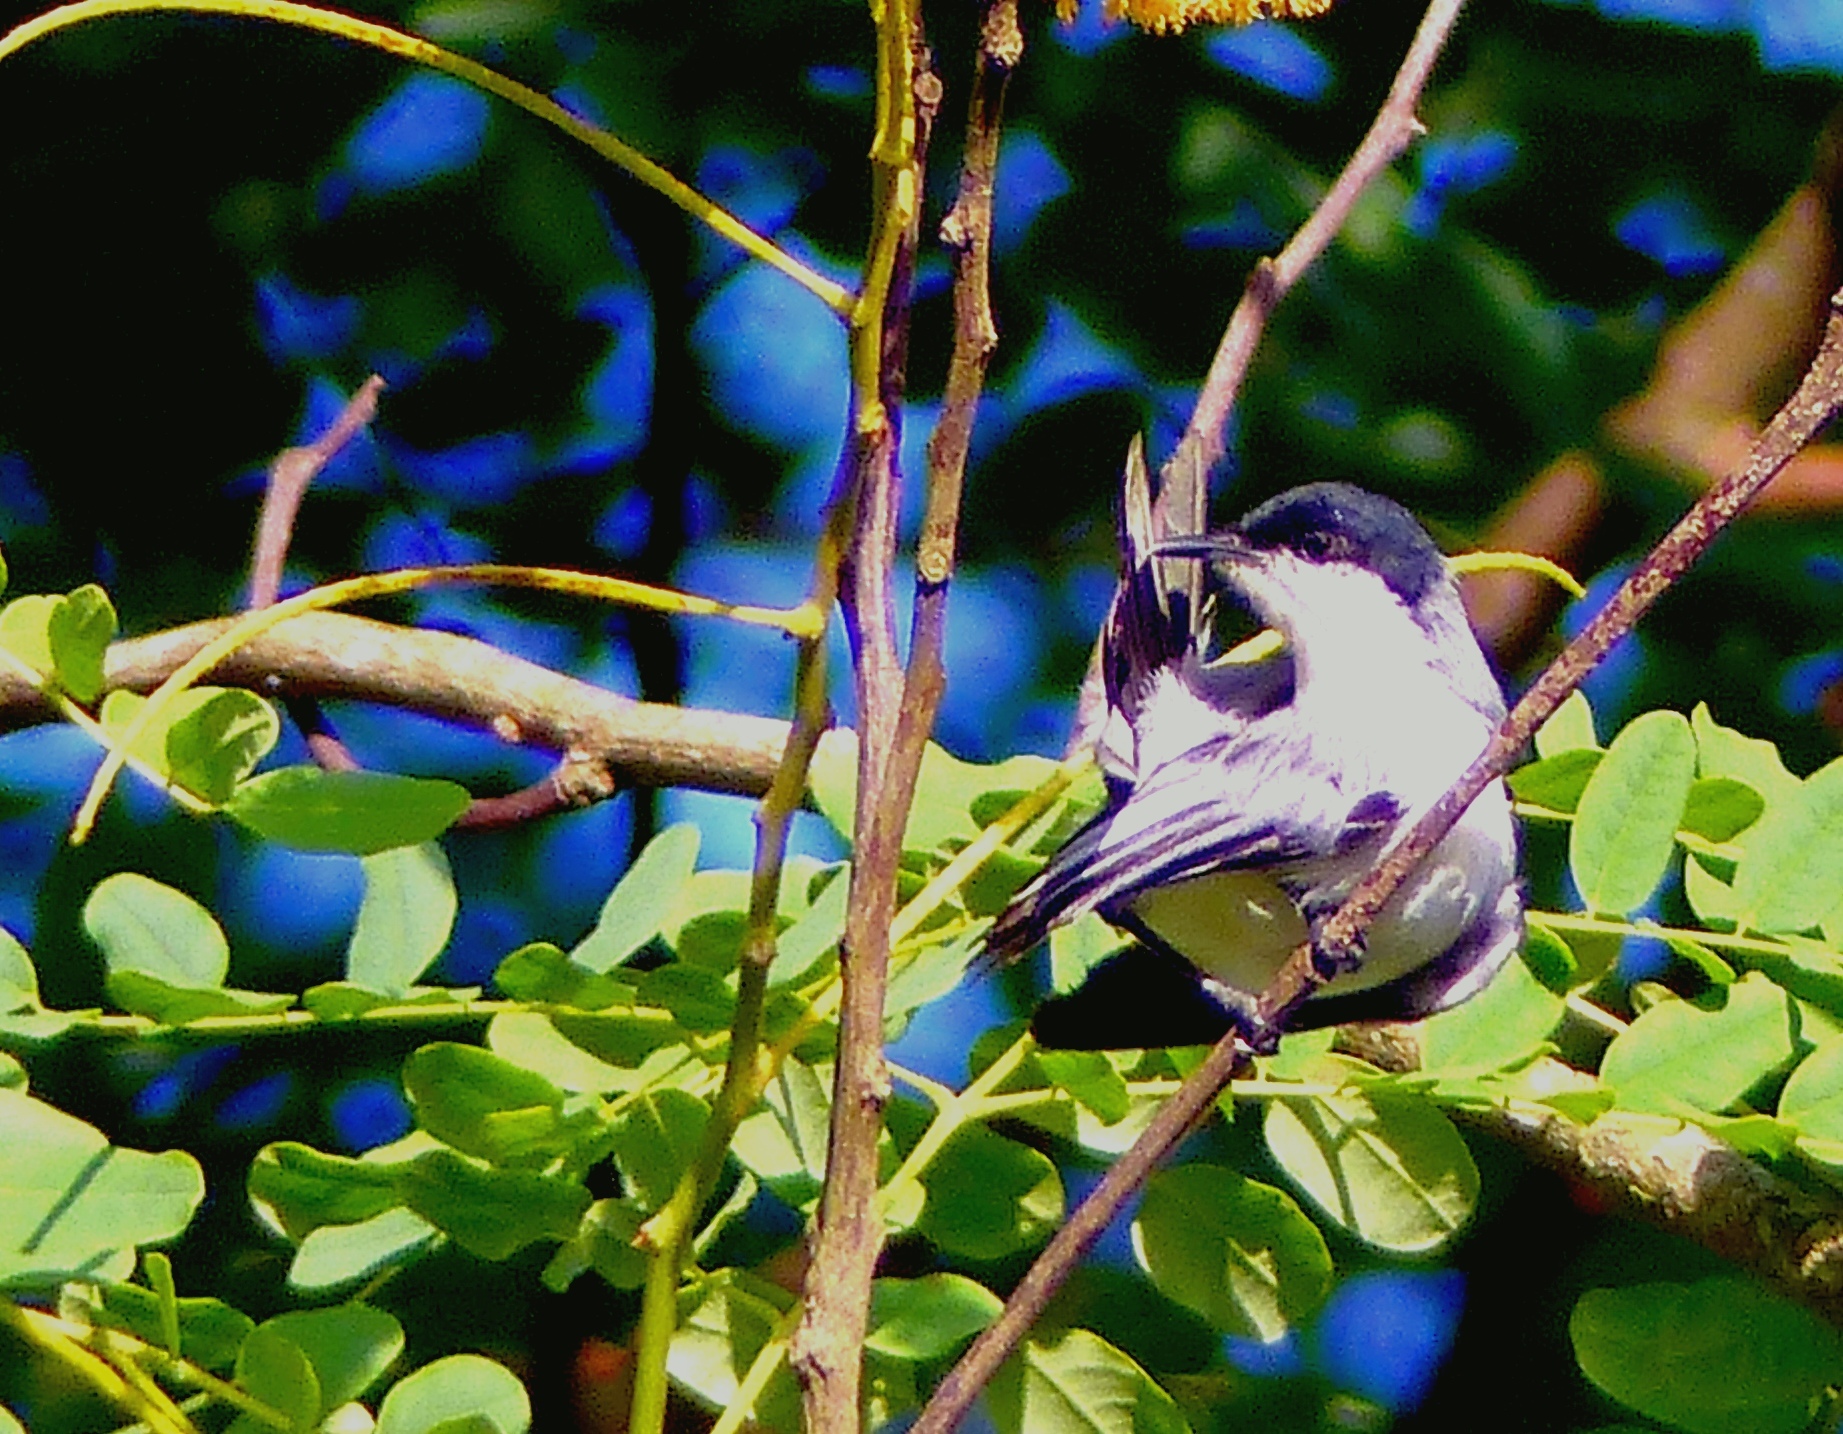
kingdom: Animalia
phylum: Chordata
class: Aves
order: Passeriformes
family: Polioptilidae
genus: Polioptila
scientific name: Polioptila plumbea
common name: Tropical gnatcatcher
